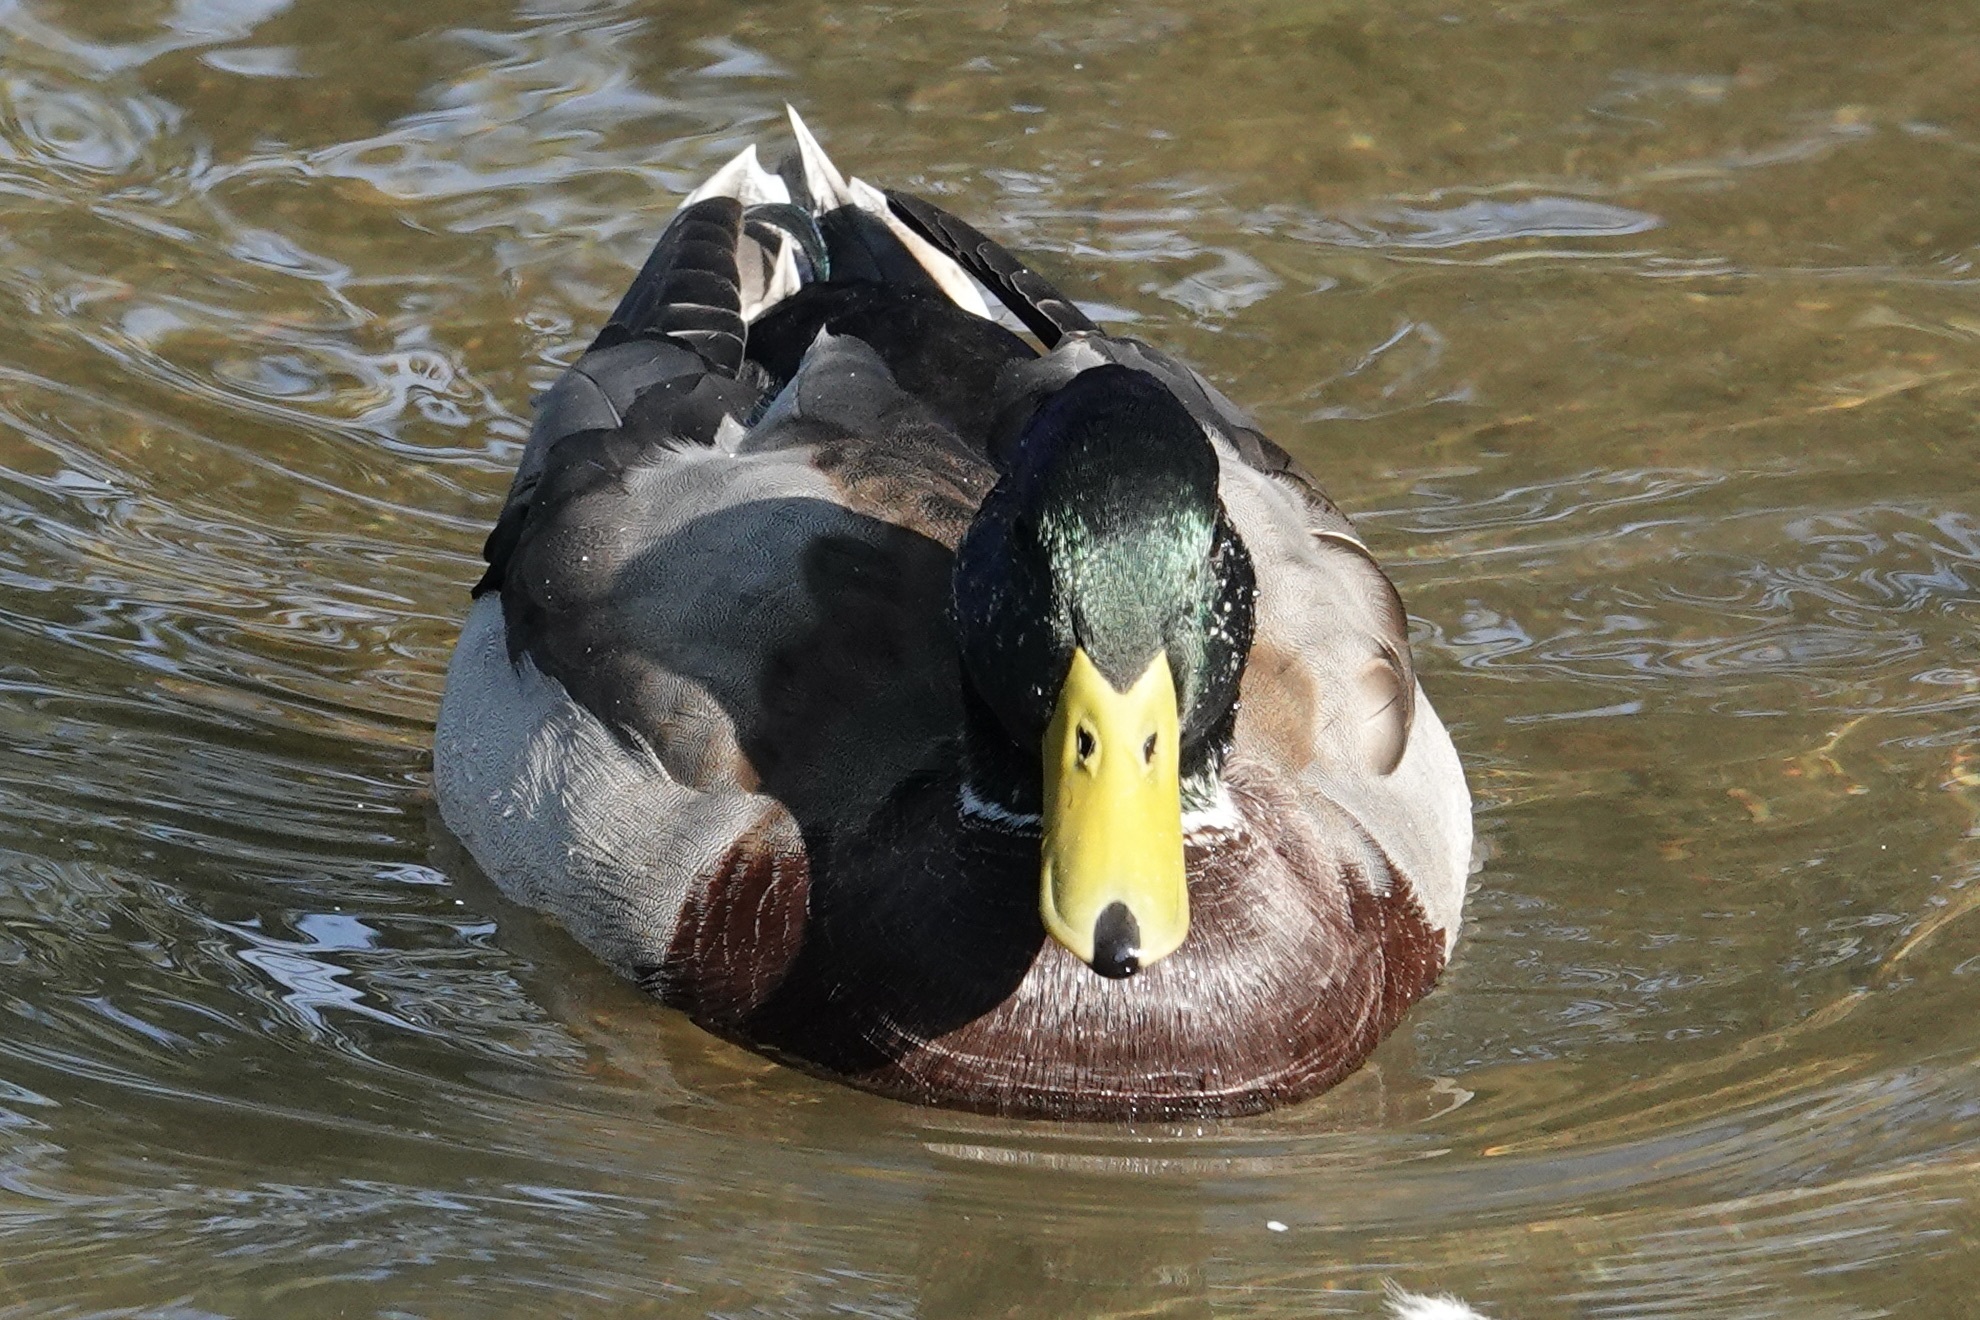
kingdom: Animalia
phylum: Chordata
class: Aves
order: Anseriformes
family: Anatidae
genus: Anas
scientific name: Anas platyrhynchos
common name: Mallard
